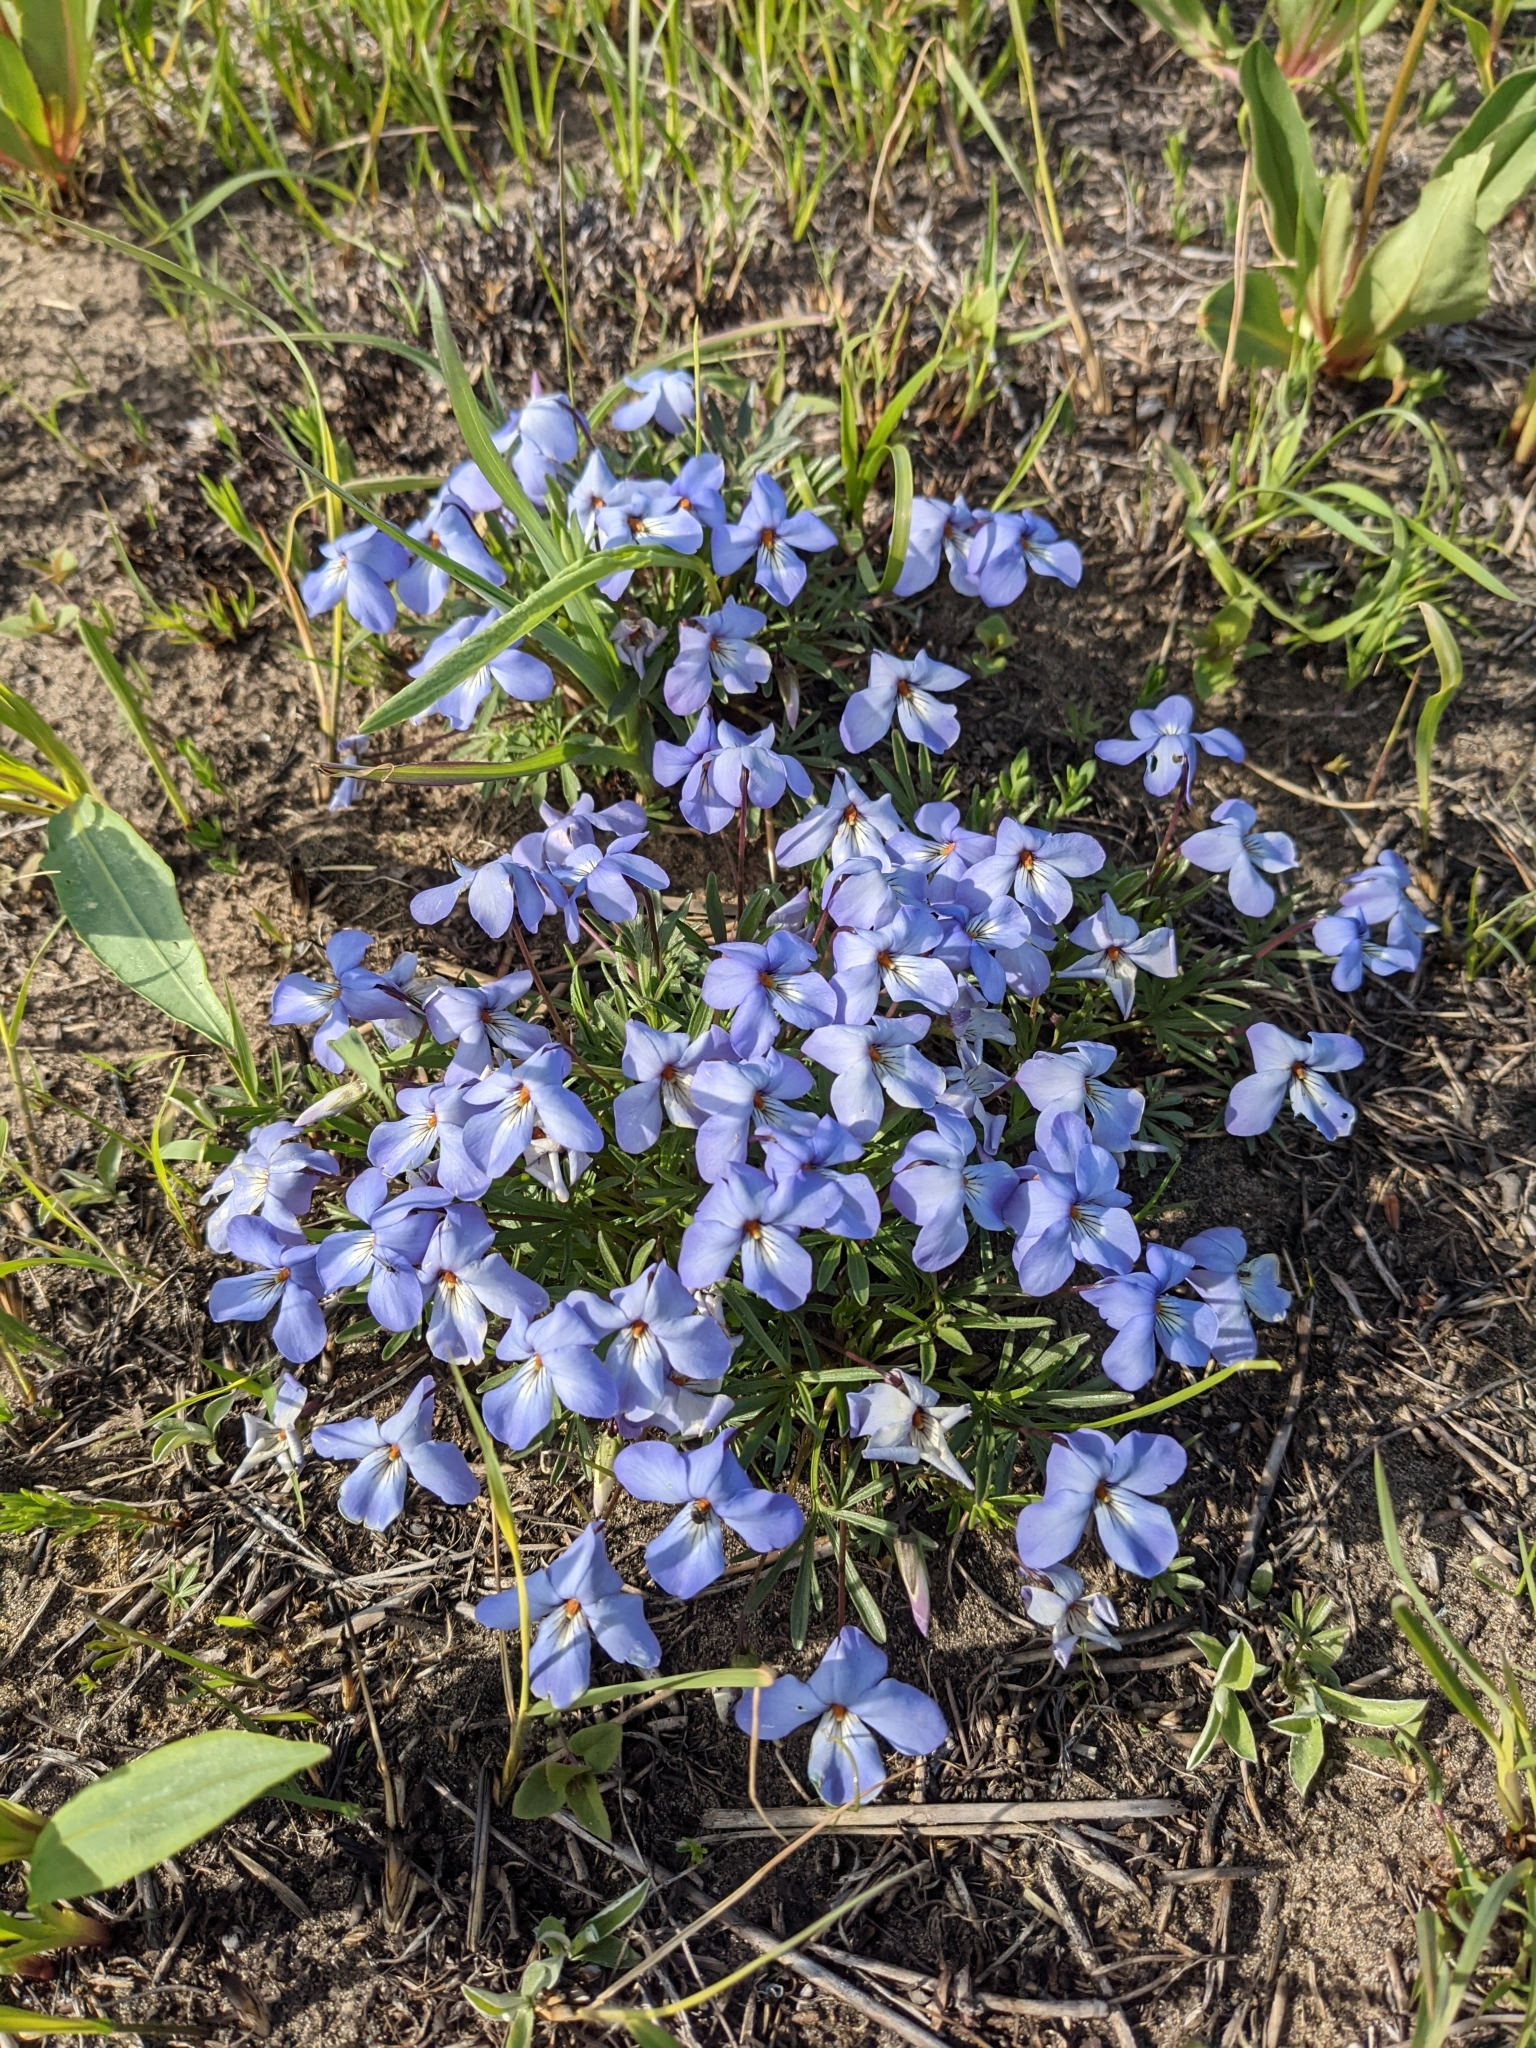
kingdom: Plantae
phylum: Tracheophyta
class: Magnoliopsida
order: Malpighiales
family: Violaceae
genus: Viola
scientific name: Viola pedata
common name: Pansy violet
